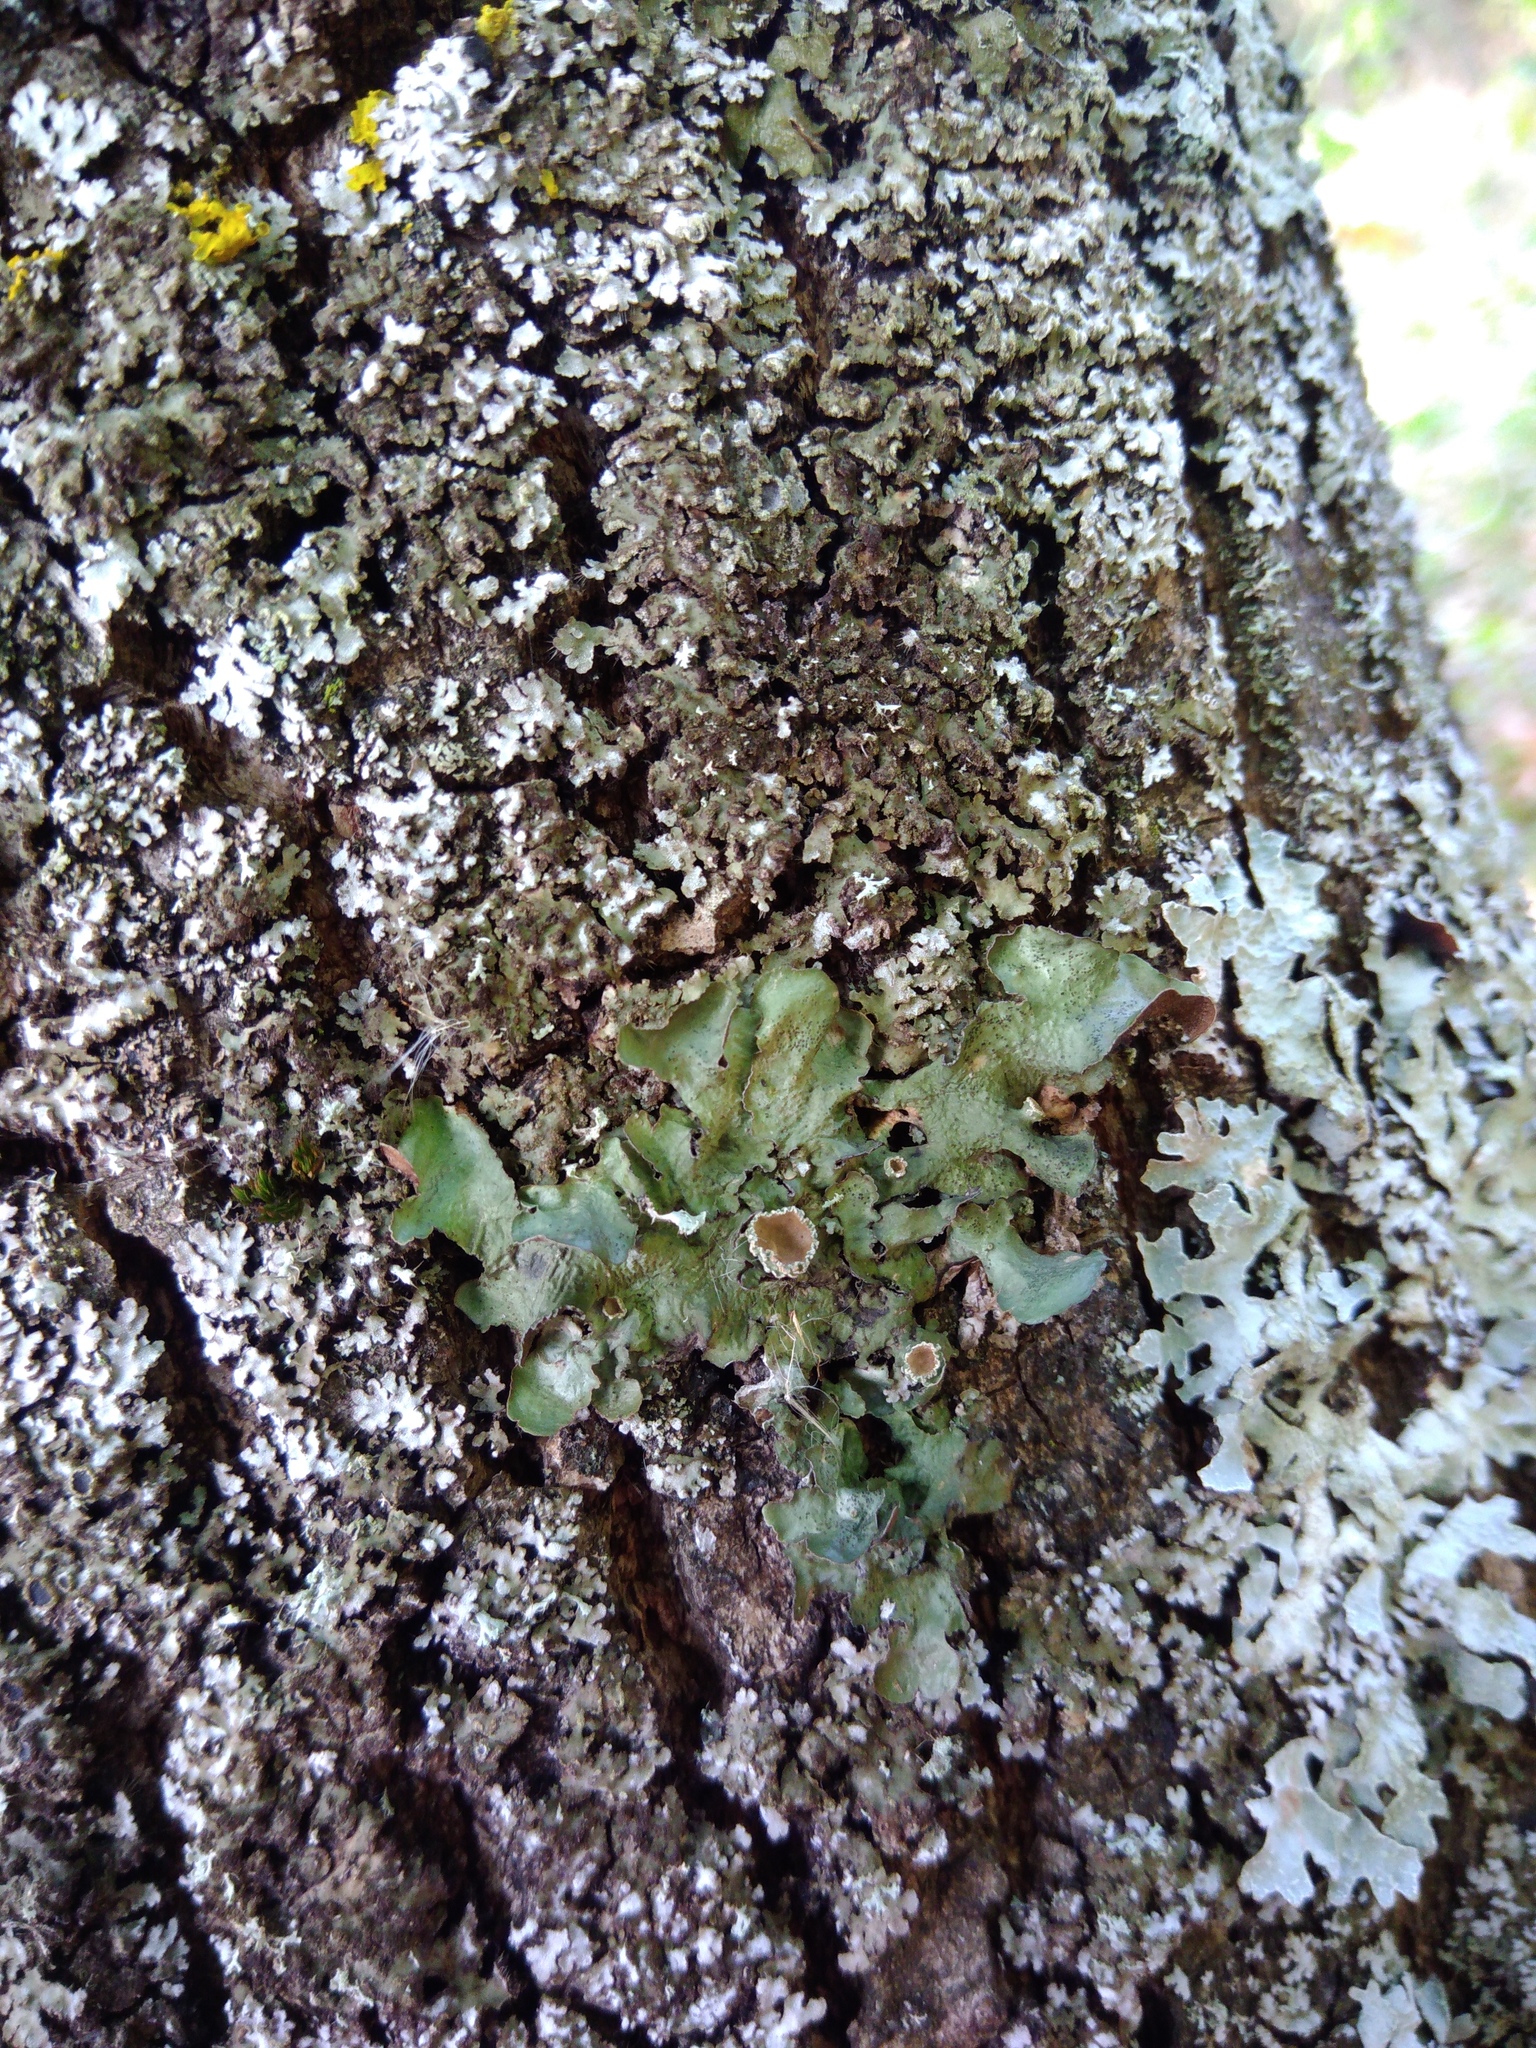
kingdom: Fungi
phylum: Ascomycota
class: Lecanoromycetes
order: Lecanorales
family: Parmeliaceae
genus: Pleurosticta
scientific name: Pleurosticta acetabulum
